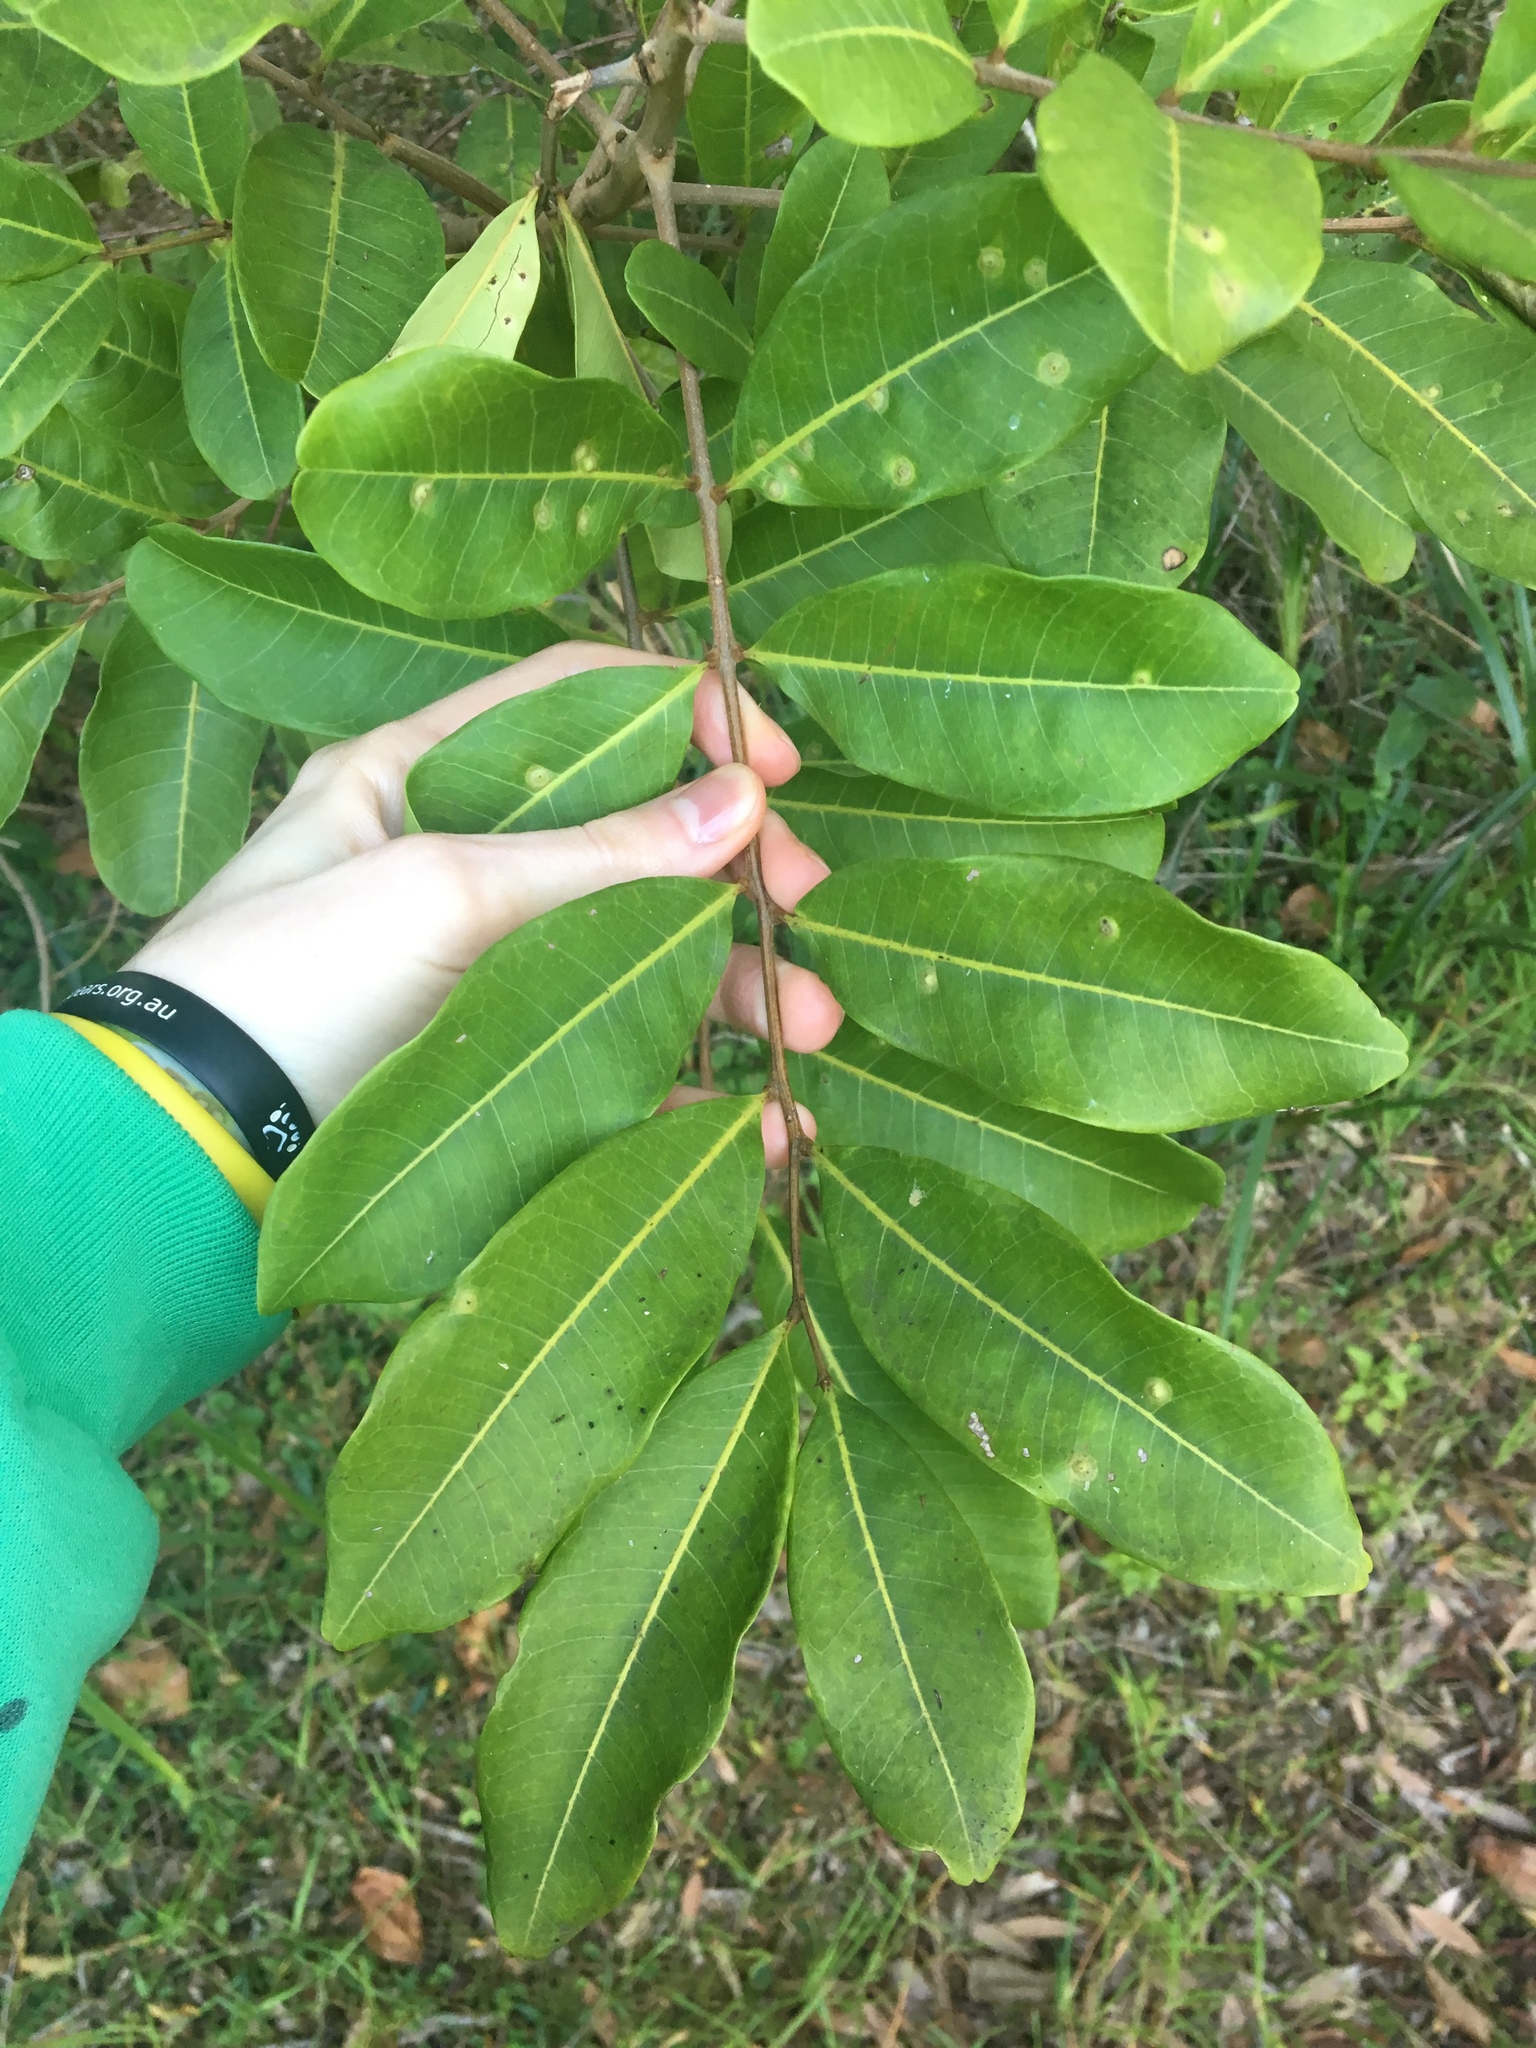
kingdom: Plantae
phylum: Tracheophyta
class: Magnoliopsida
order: Sapindales
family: Sapindaceae
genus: Cupaniopsis
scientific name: Cupaniopsis anacardioides
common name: Carrotwood
